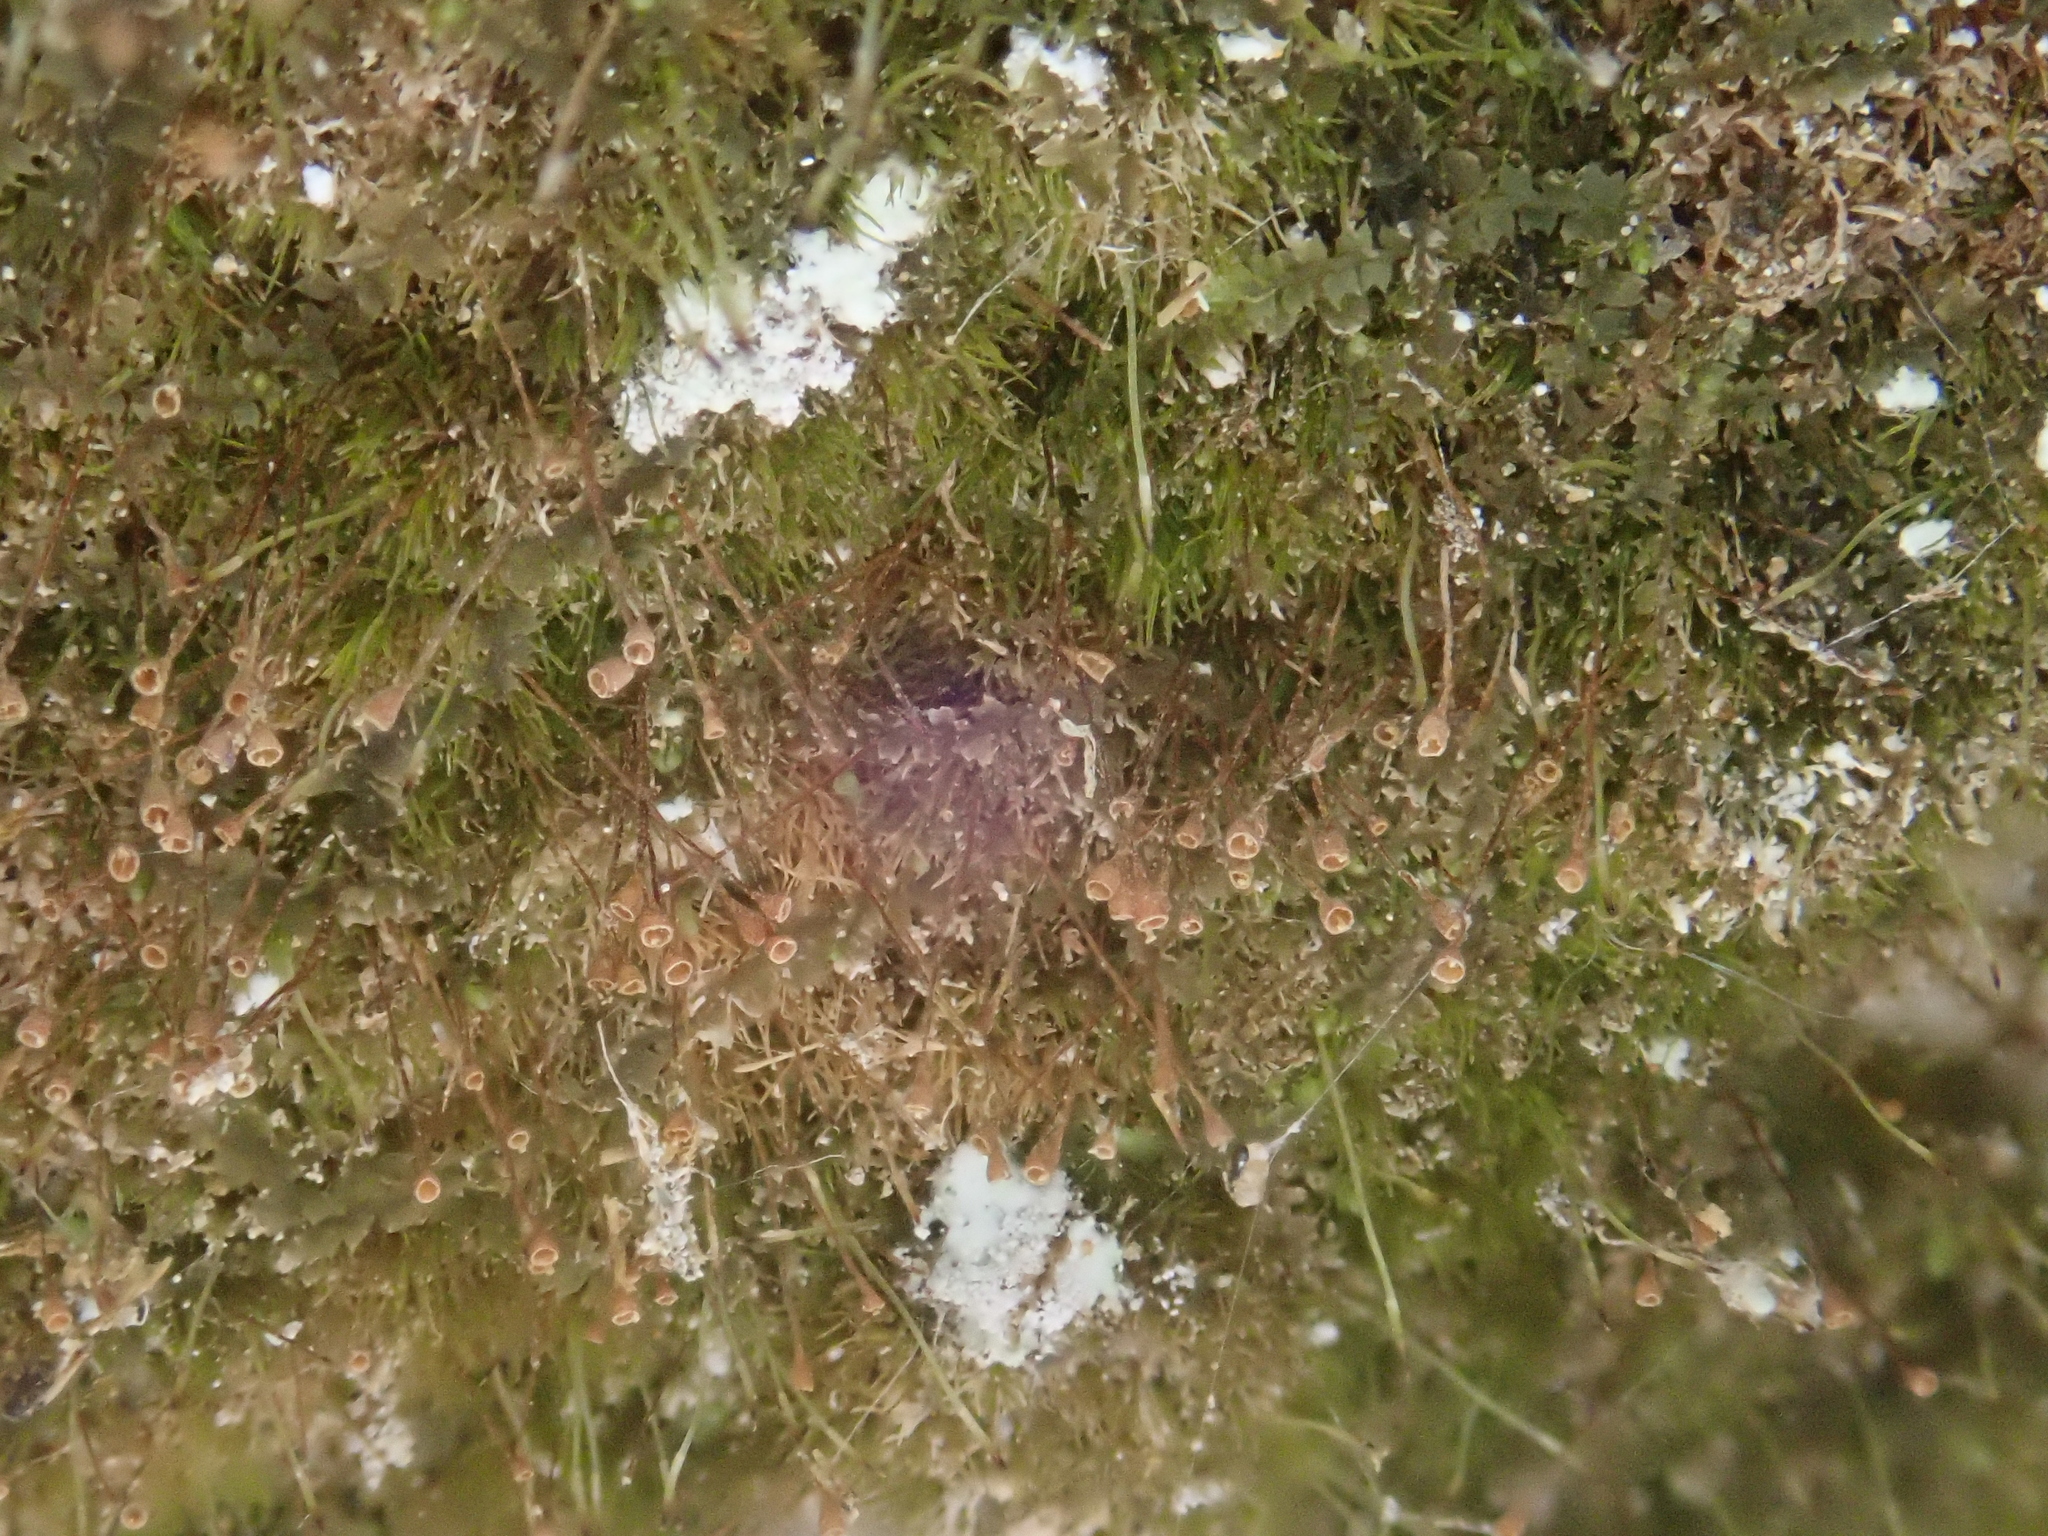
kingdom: Plantae
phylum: Bryophyta
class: Bryopsida
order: Grimmiales
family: Seligeriaceae
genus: Seligeria
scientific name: Seligeria donniana
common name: Donn's bristle moss
